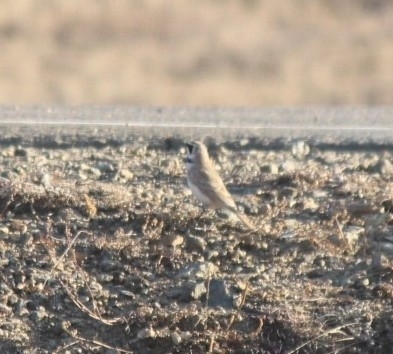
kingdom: Animalia
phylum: Chordata
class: Aves
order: Passeriformes
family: Alaudidae
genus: Eremophila
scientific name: Eremophila alpestris
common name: Horned lark
